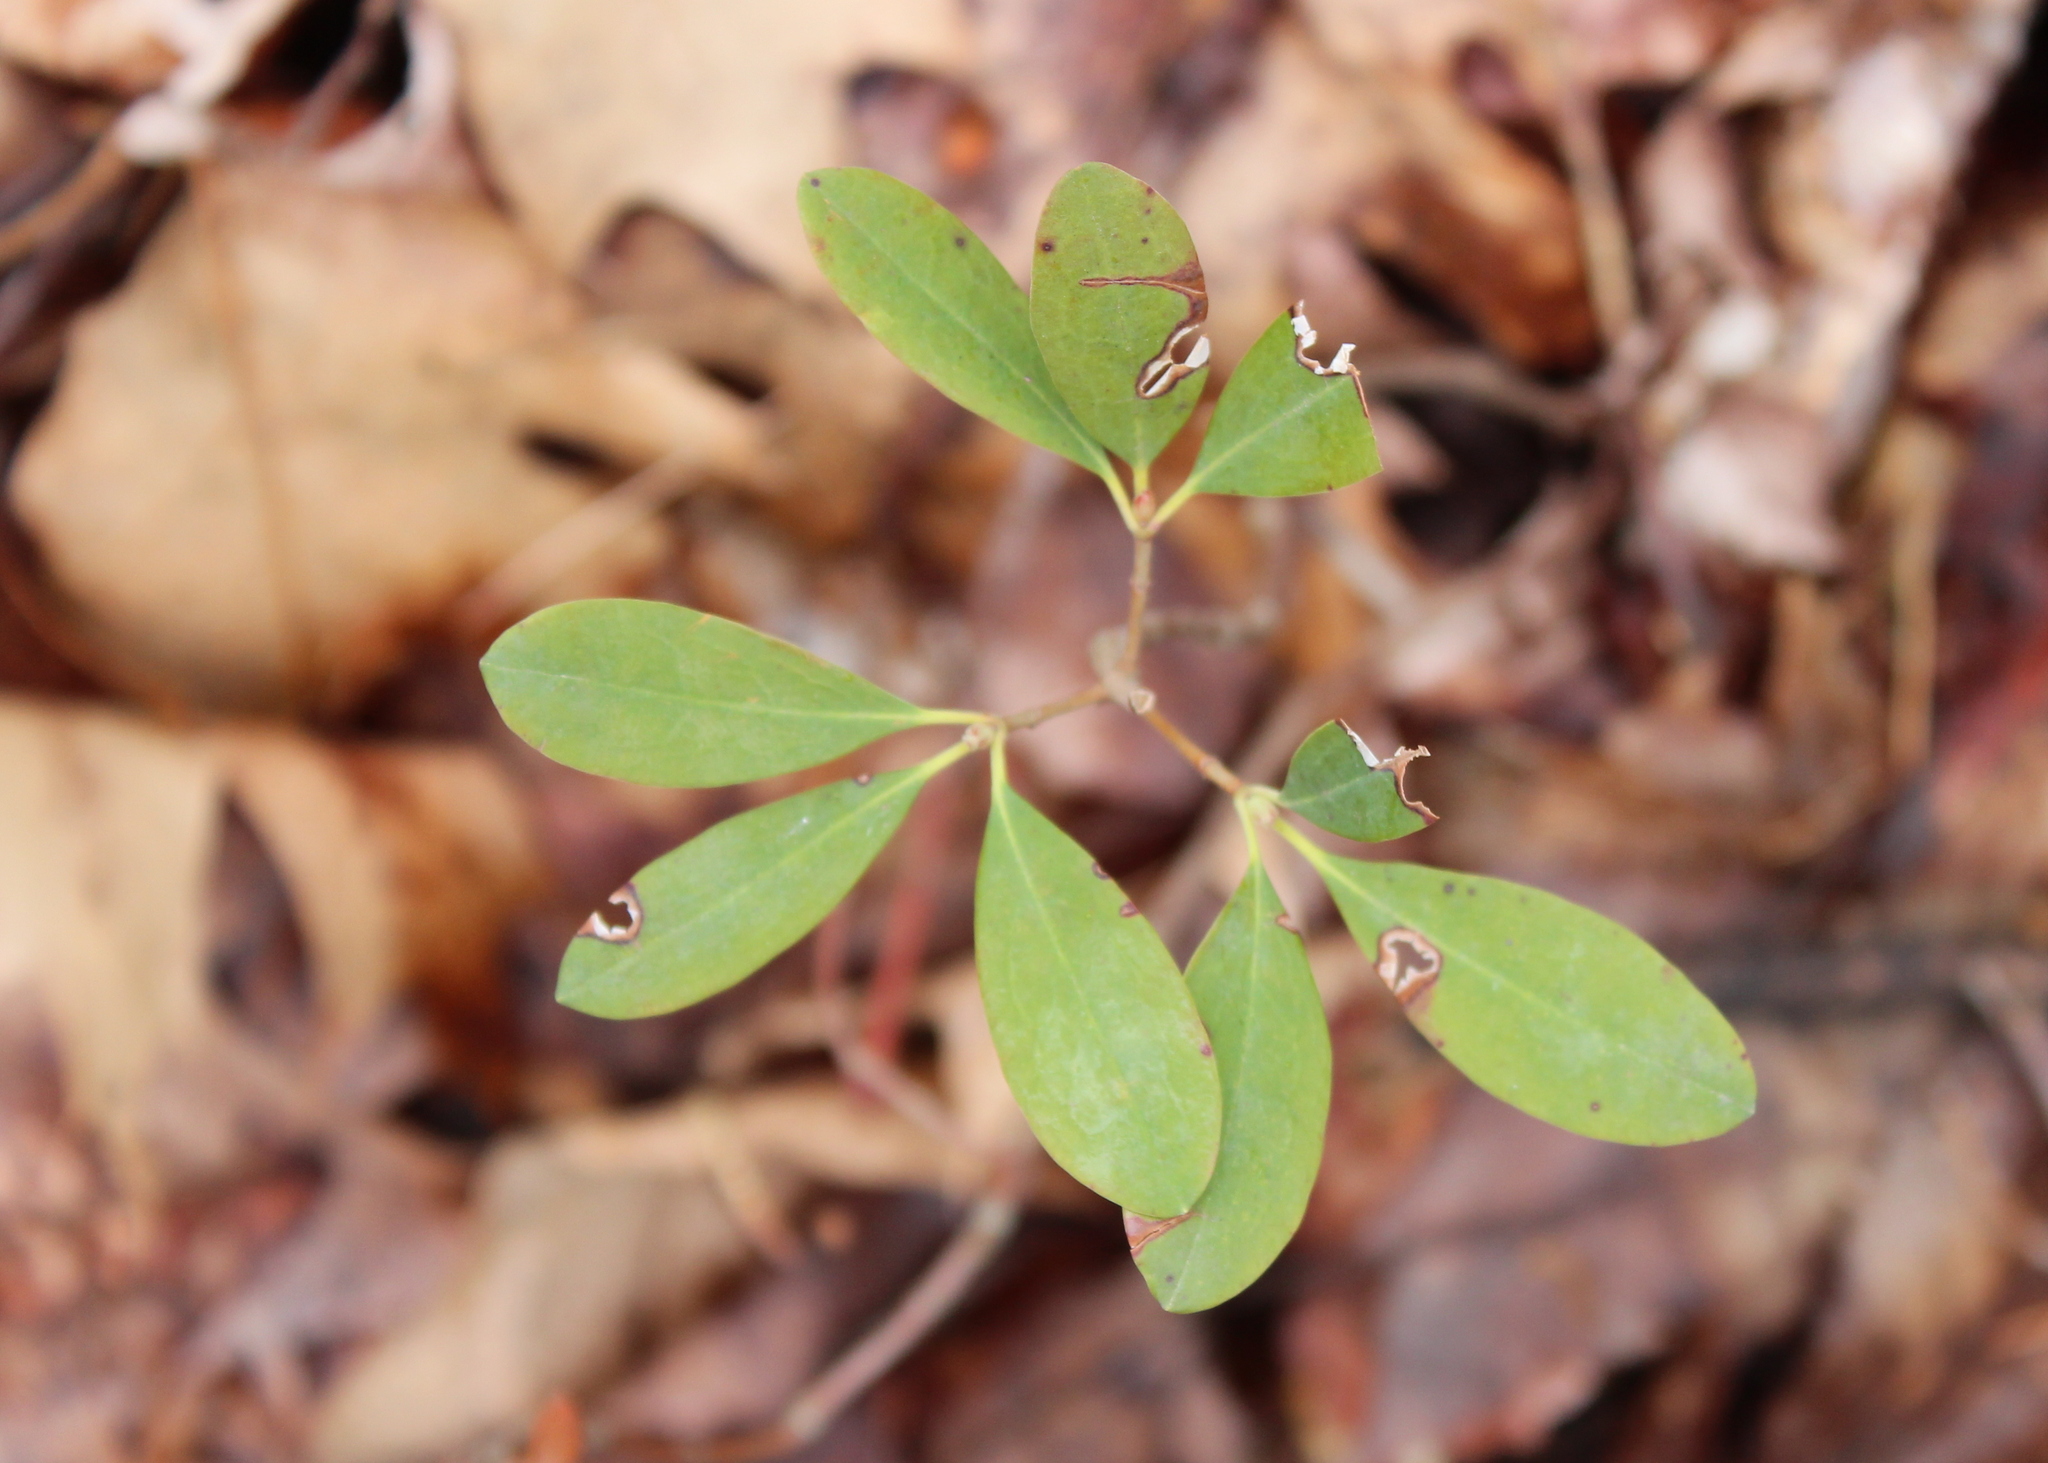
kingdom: Plantae
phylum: Tracheophyta
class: Magnoliopsida
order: Ericales
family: Ericaceae
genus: Kalmia
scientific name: Kalmia angustifolia
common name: Sheep-laurel
